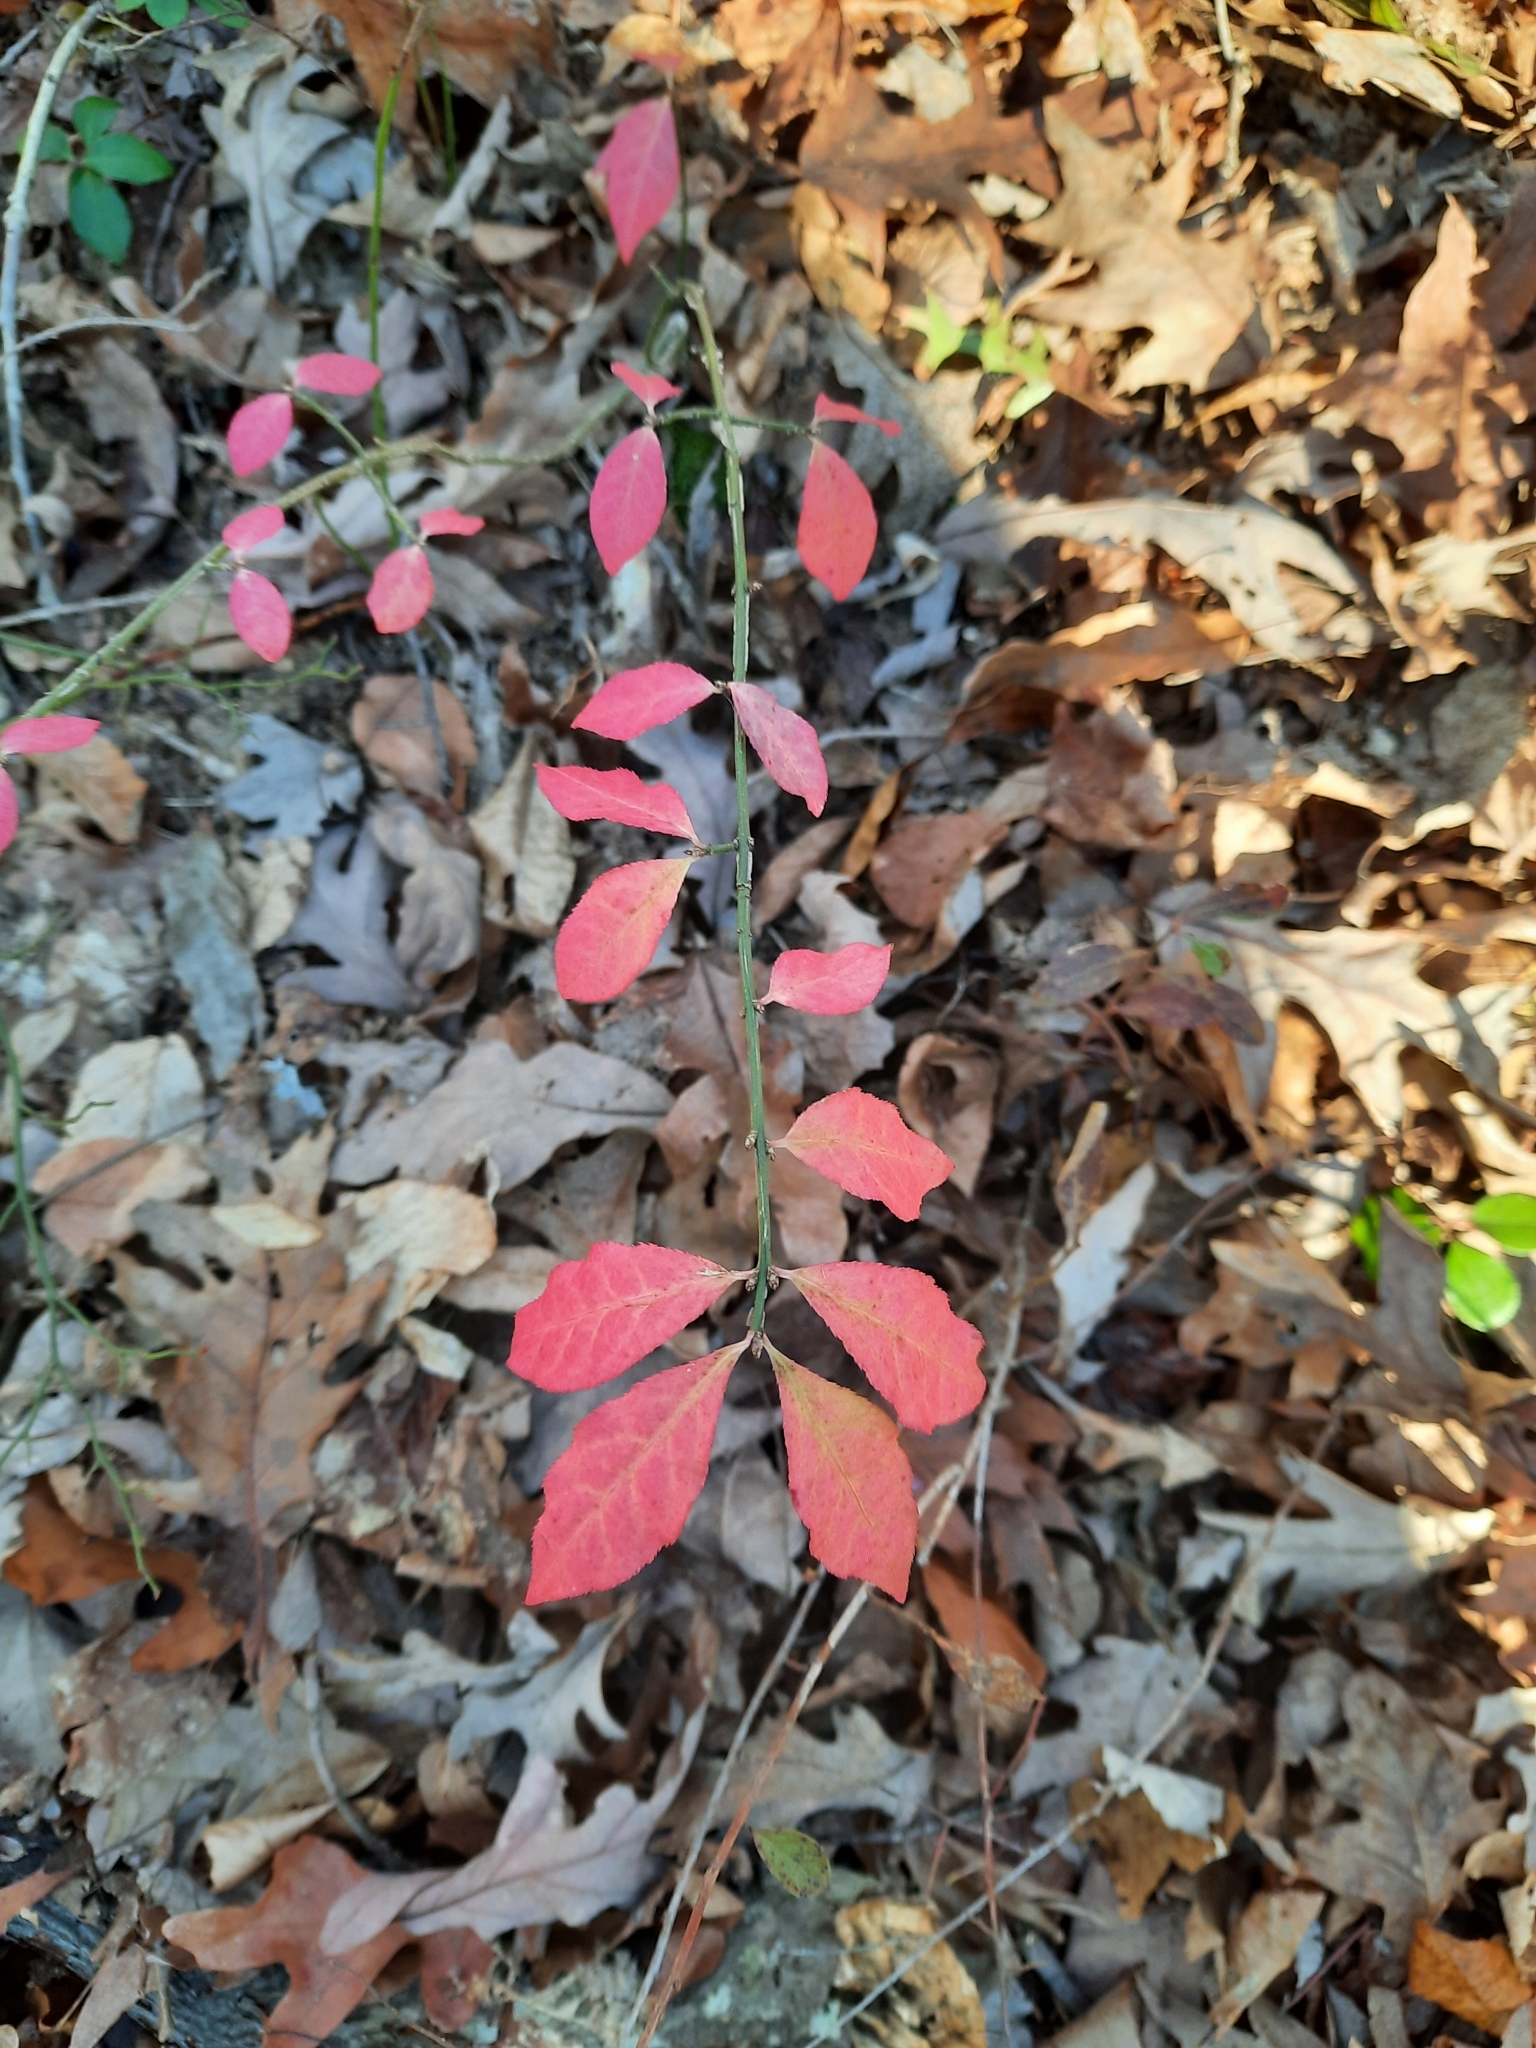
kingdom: Plantae
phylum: Tracheophyta
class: Magnoliopsida
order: Celastrales
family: Celastraceae
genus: Euonymus
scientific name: Euonymus alatus
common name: Winged euonymus
